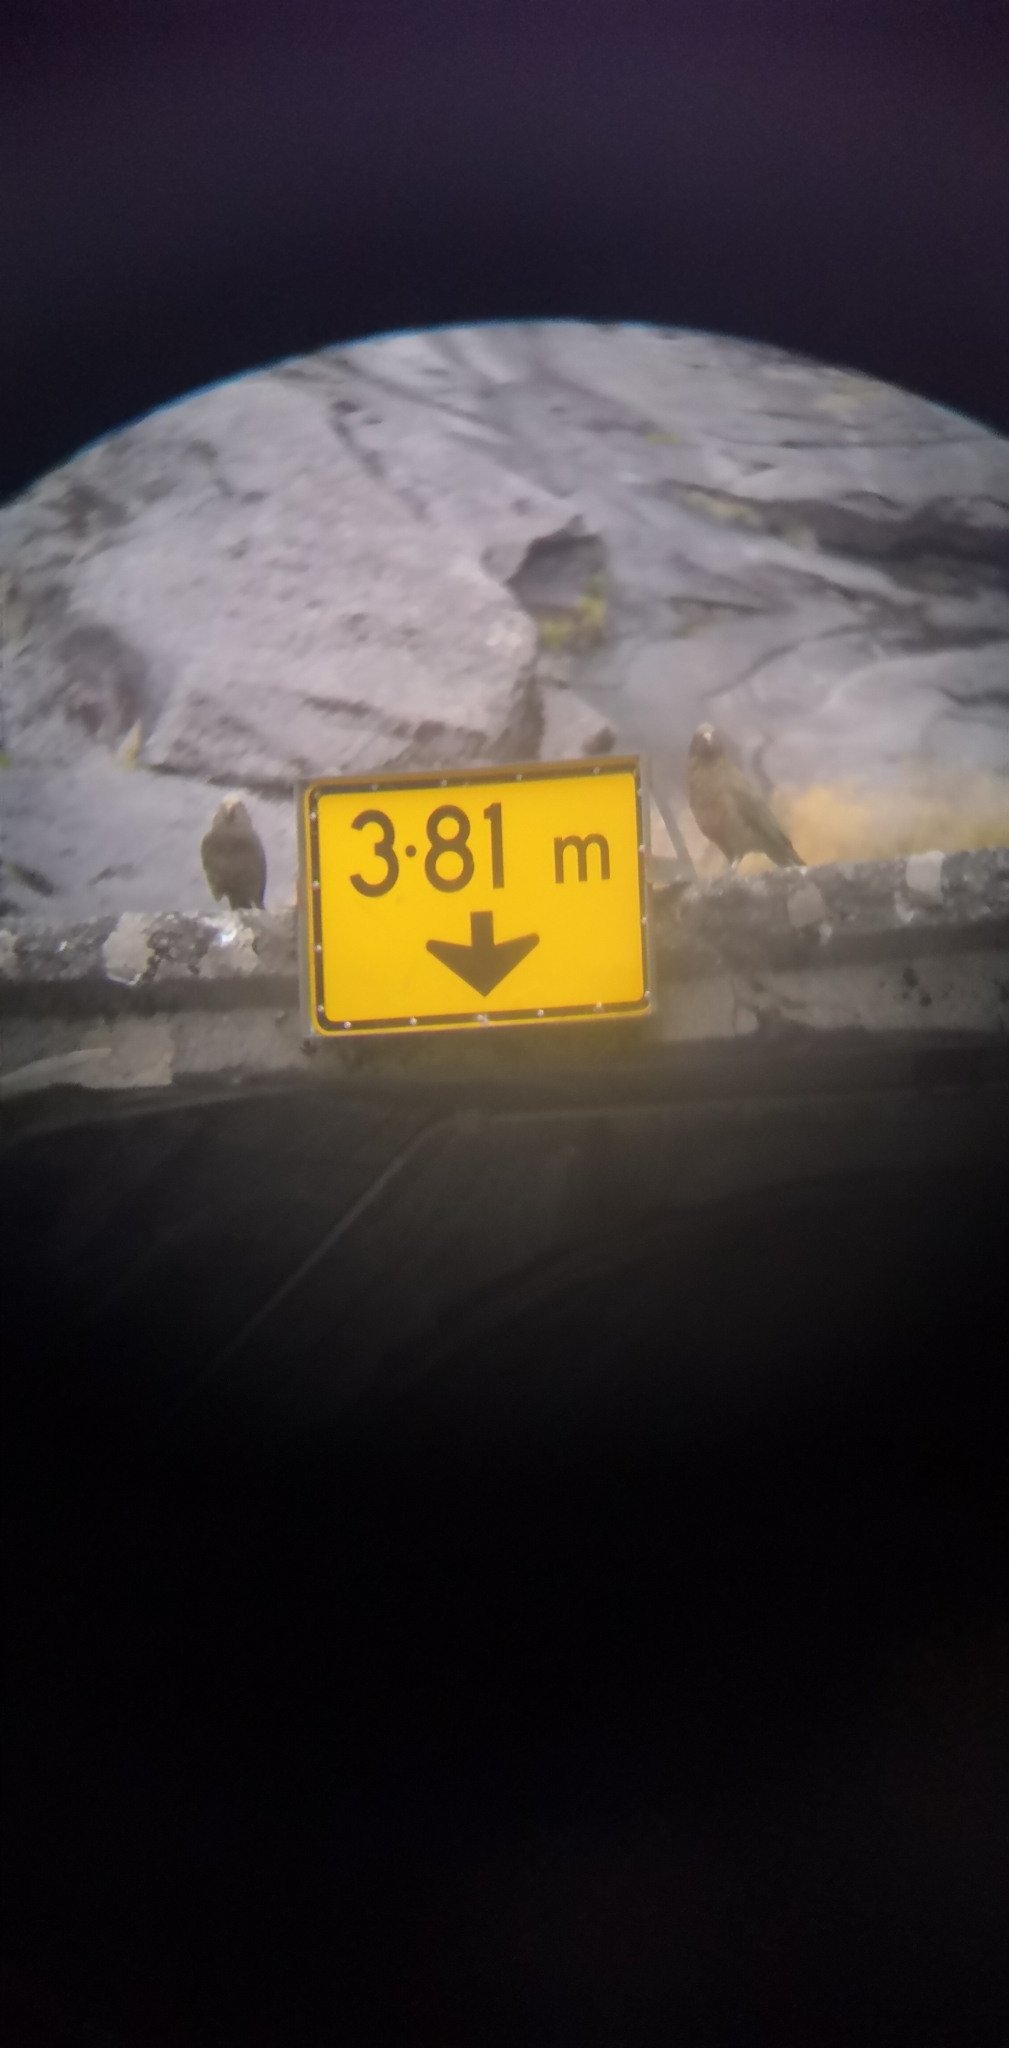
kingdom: Animalia
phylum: Chordata
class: Aves
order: Psittaciformes
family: Psittacidae
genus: Nestor
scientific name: Nestor notabilis
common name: Kea
